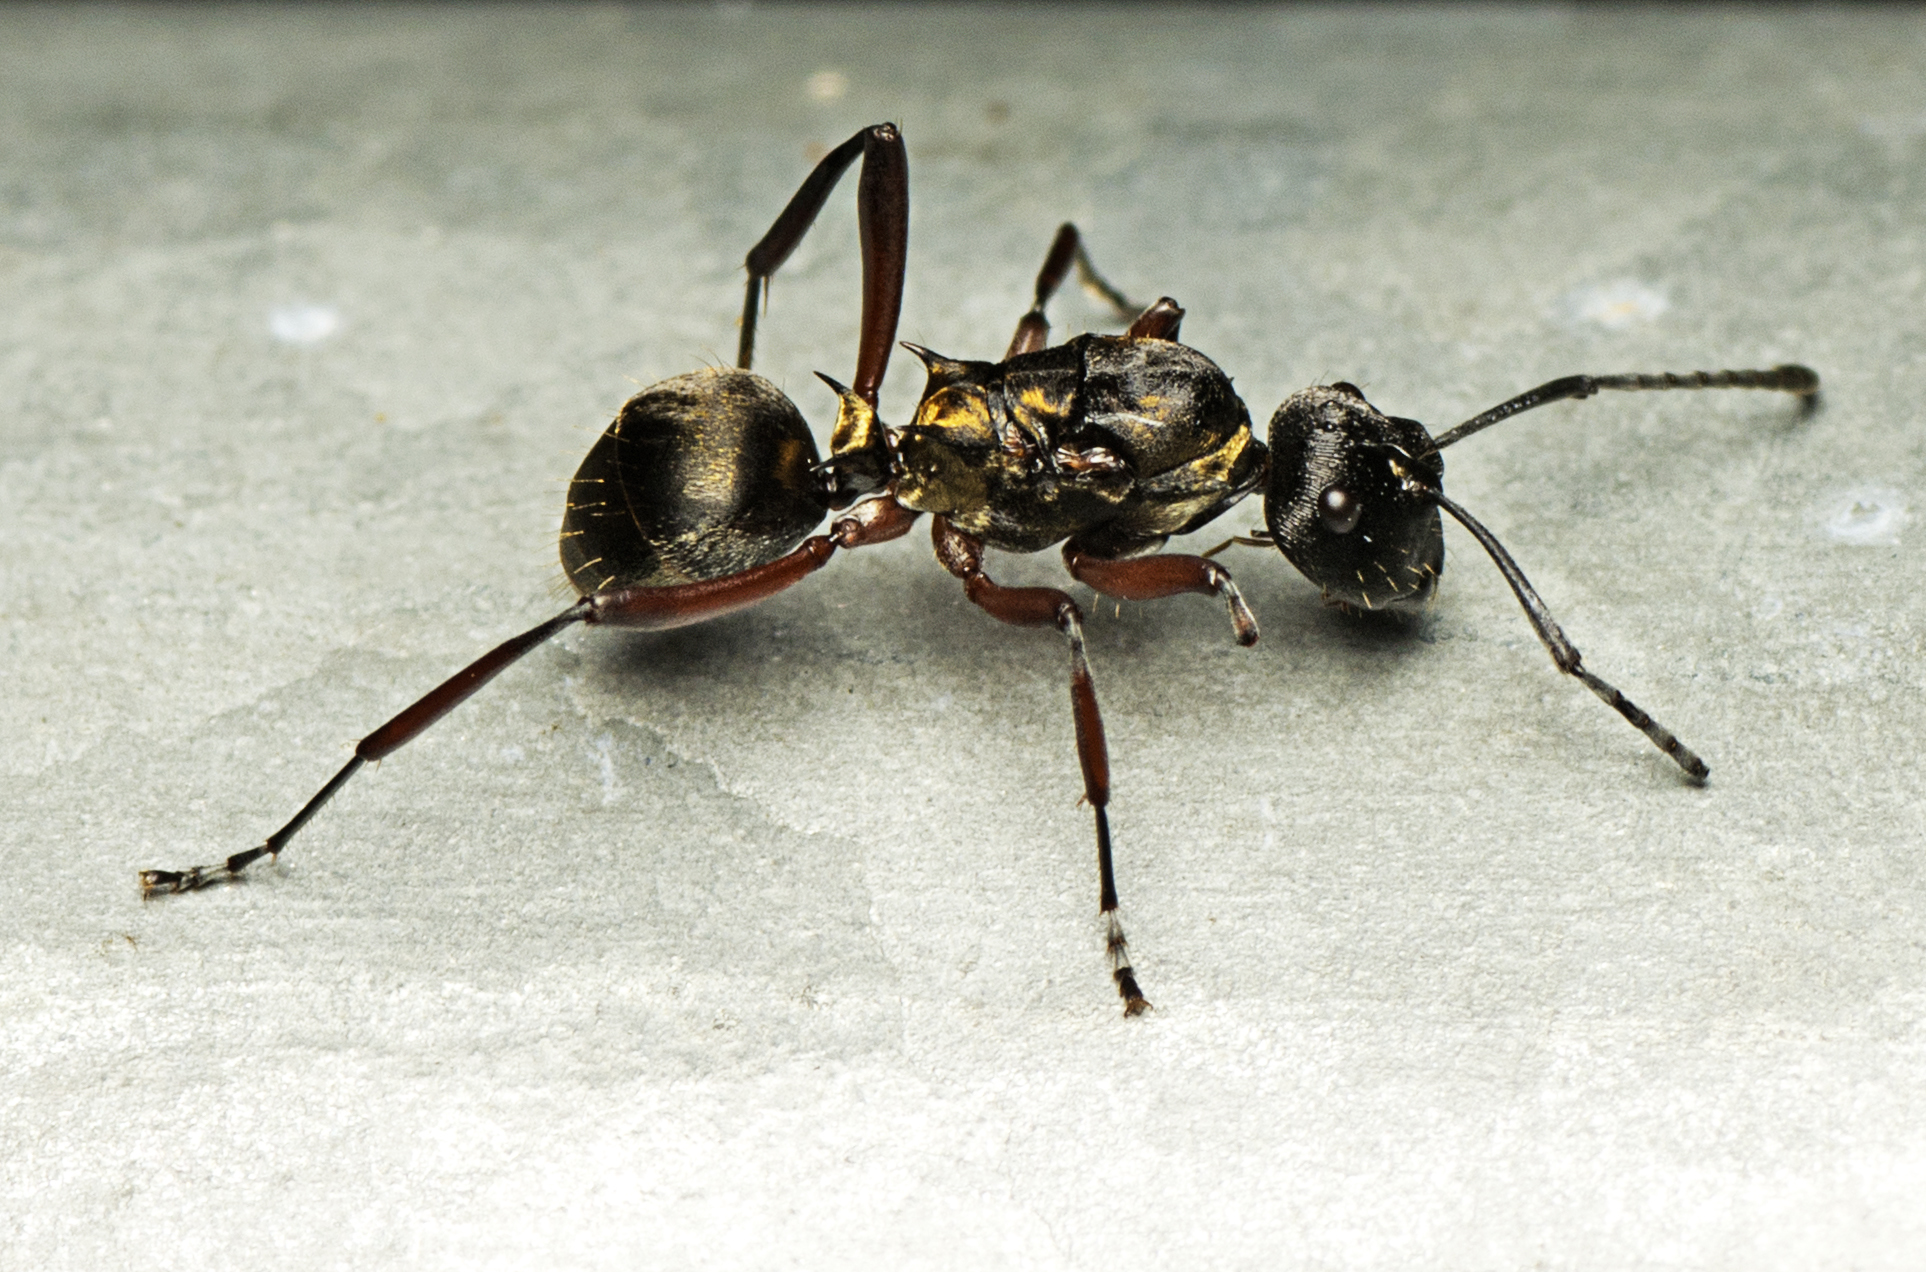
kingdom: Animalia
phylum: Arthropoda
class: Insecta
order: Hymenoptera
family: Formicidae
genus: Polyrhachis
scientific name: Polyrhachis rufifemur
